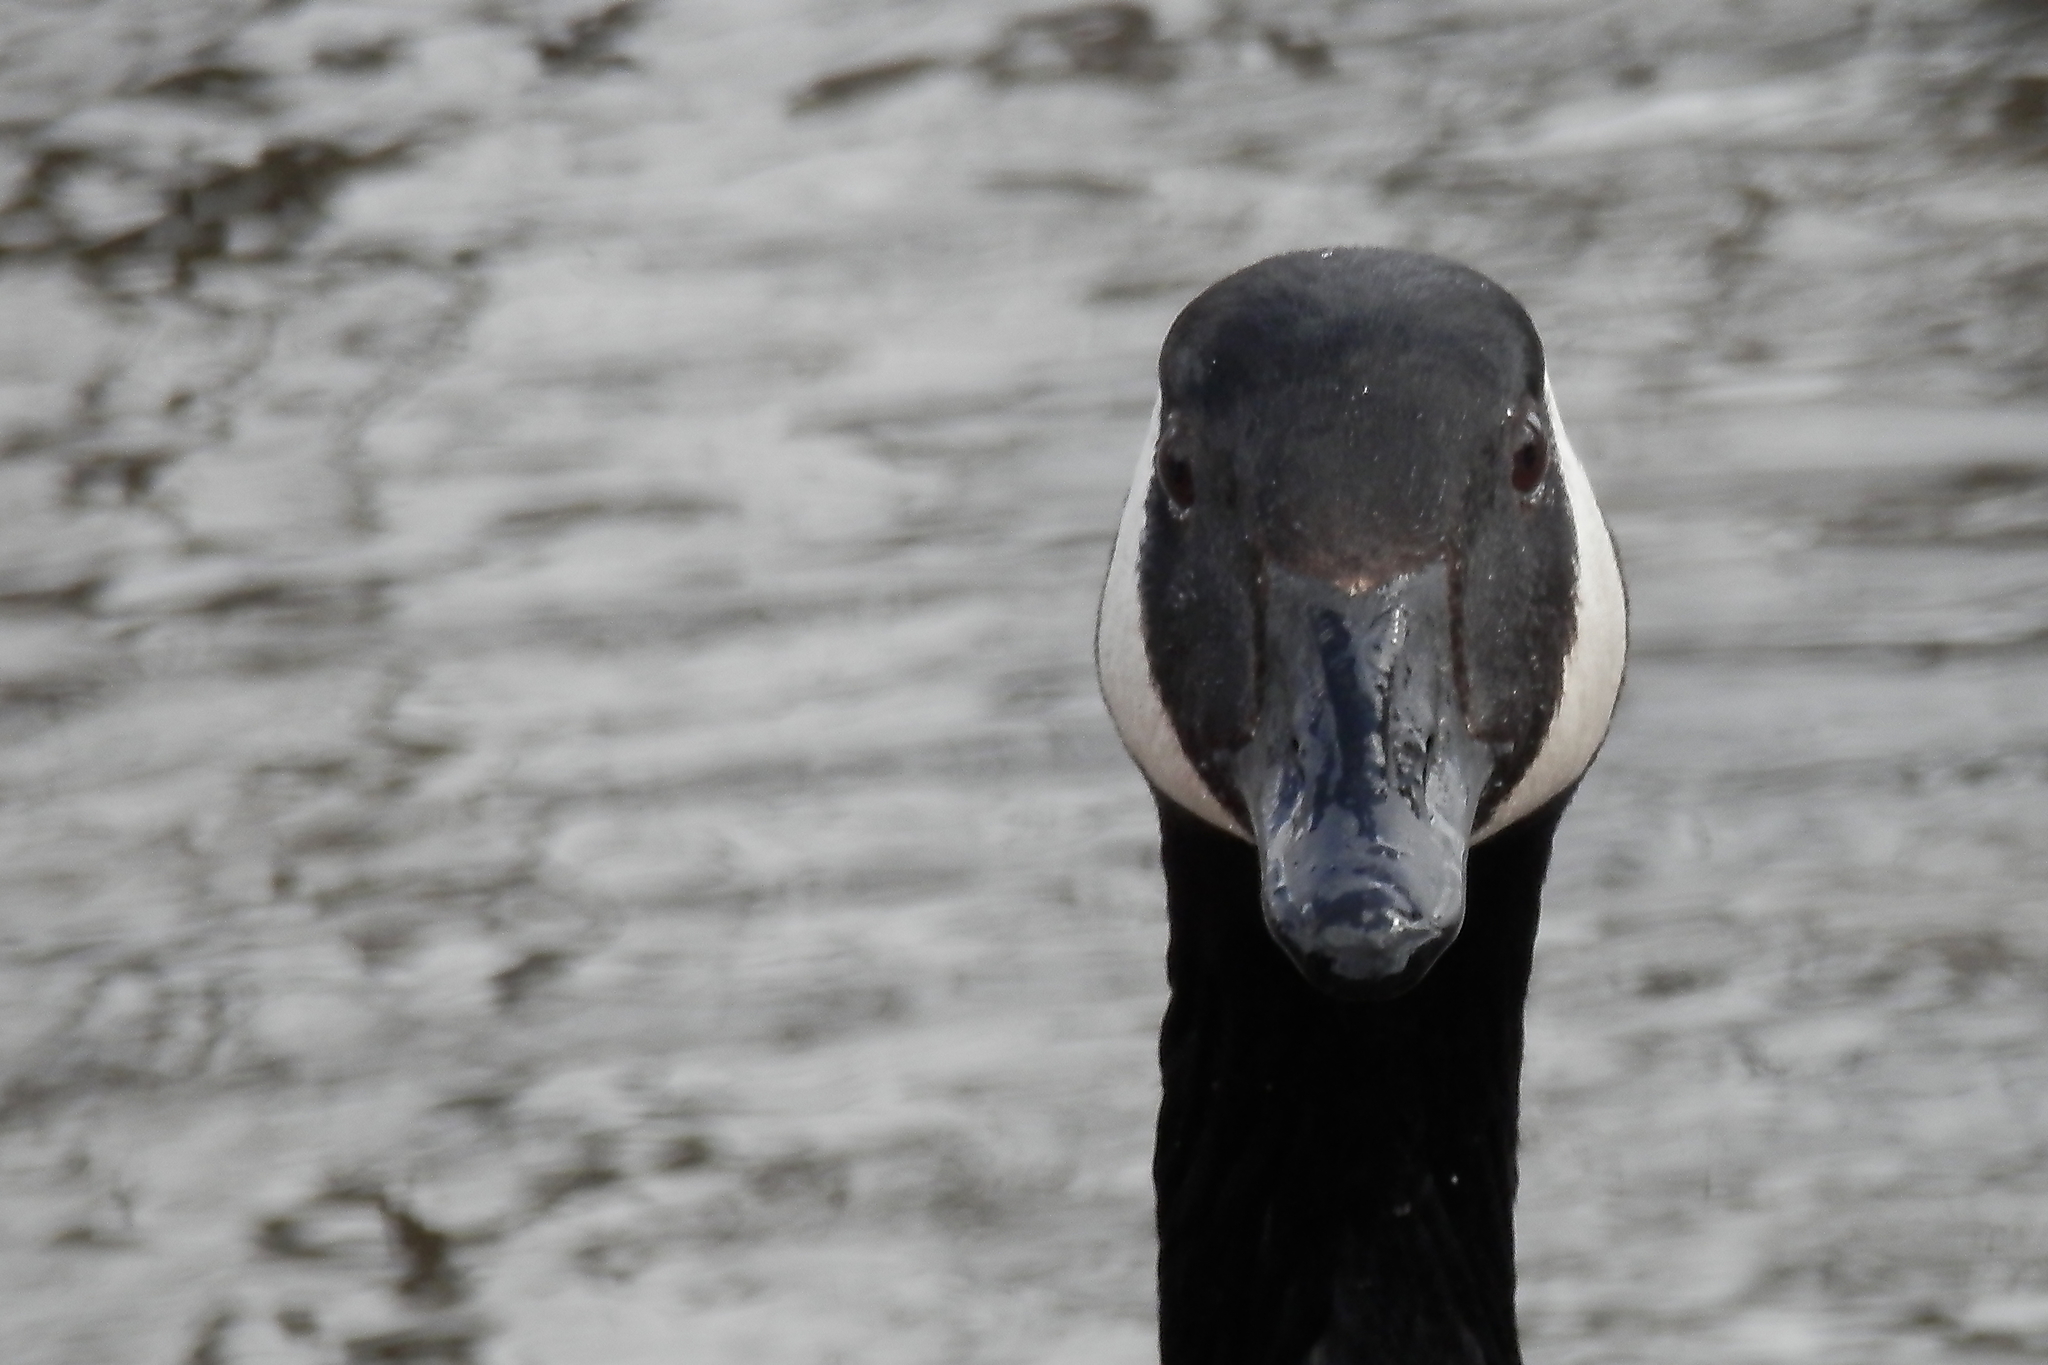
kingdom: Animalia
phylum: Chordata
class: Aves
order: Anseriformes
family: Anatidae
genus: Branta
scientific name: Branta canadensis
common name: Canada goose
